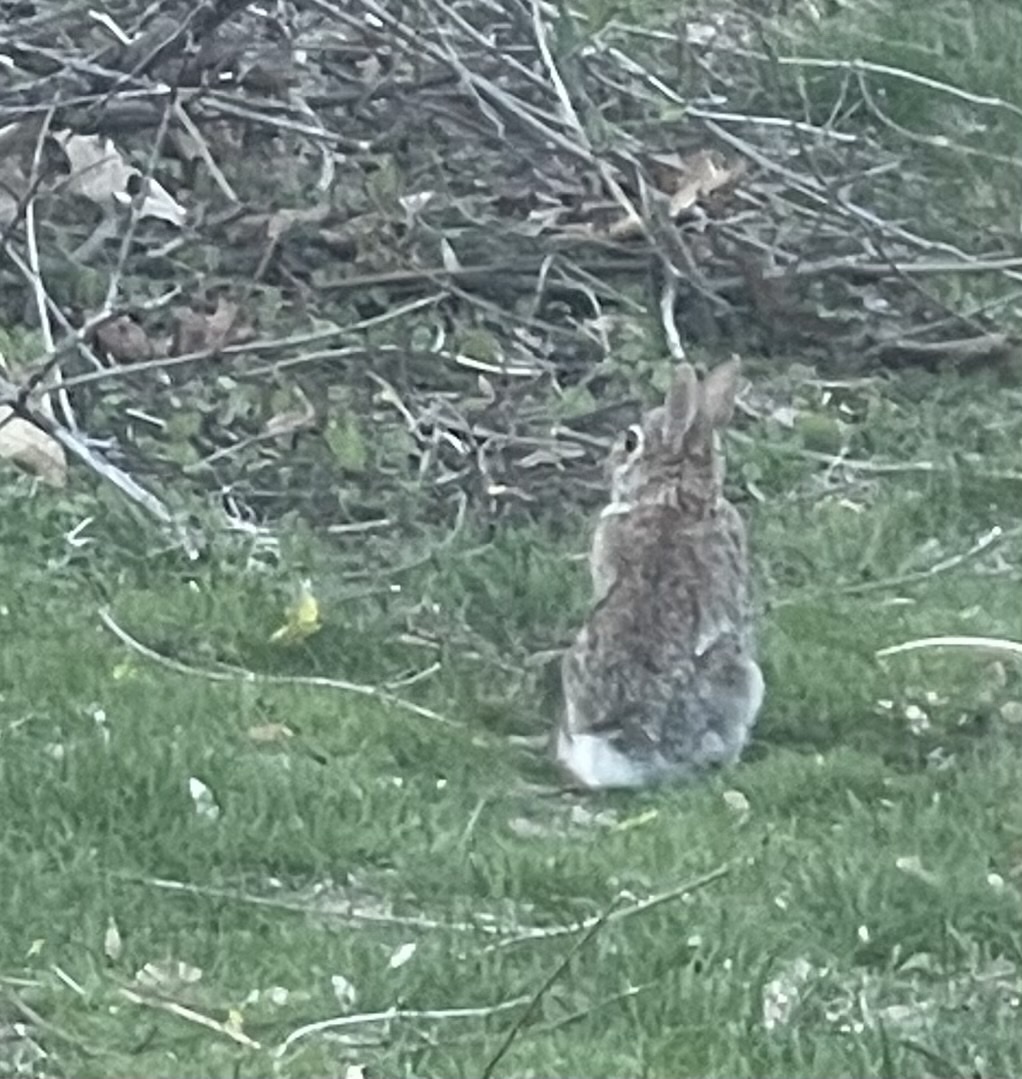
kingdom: Animalia
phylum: Chordata
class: Mammalia
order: Lagomorpha
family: Leporidae
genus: Sylvilagus
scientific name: Sylvilagus floridanus
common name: Eastern cottontail
